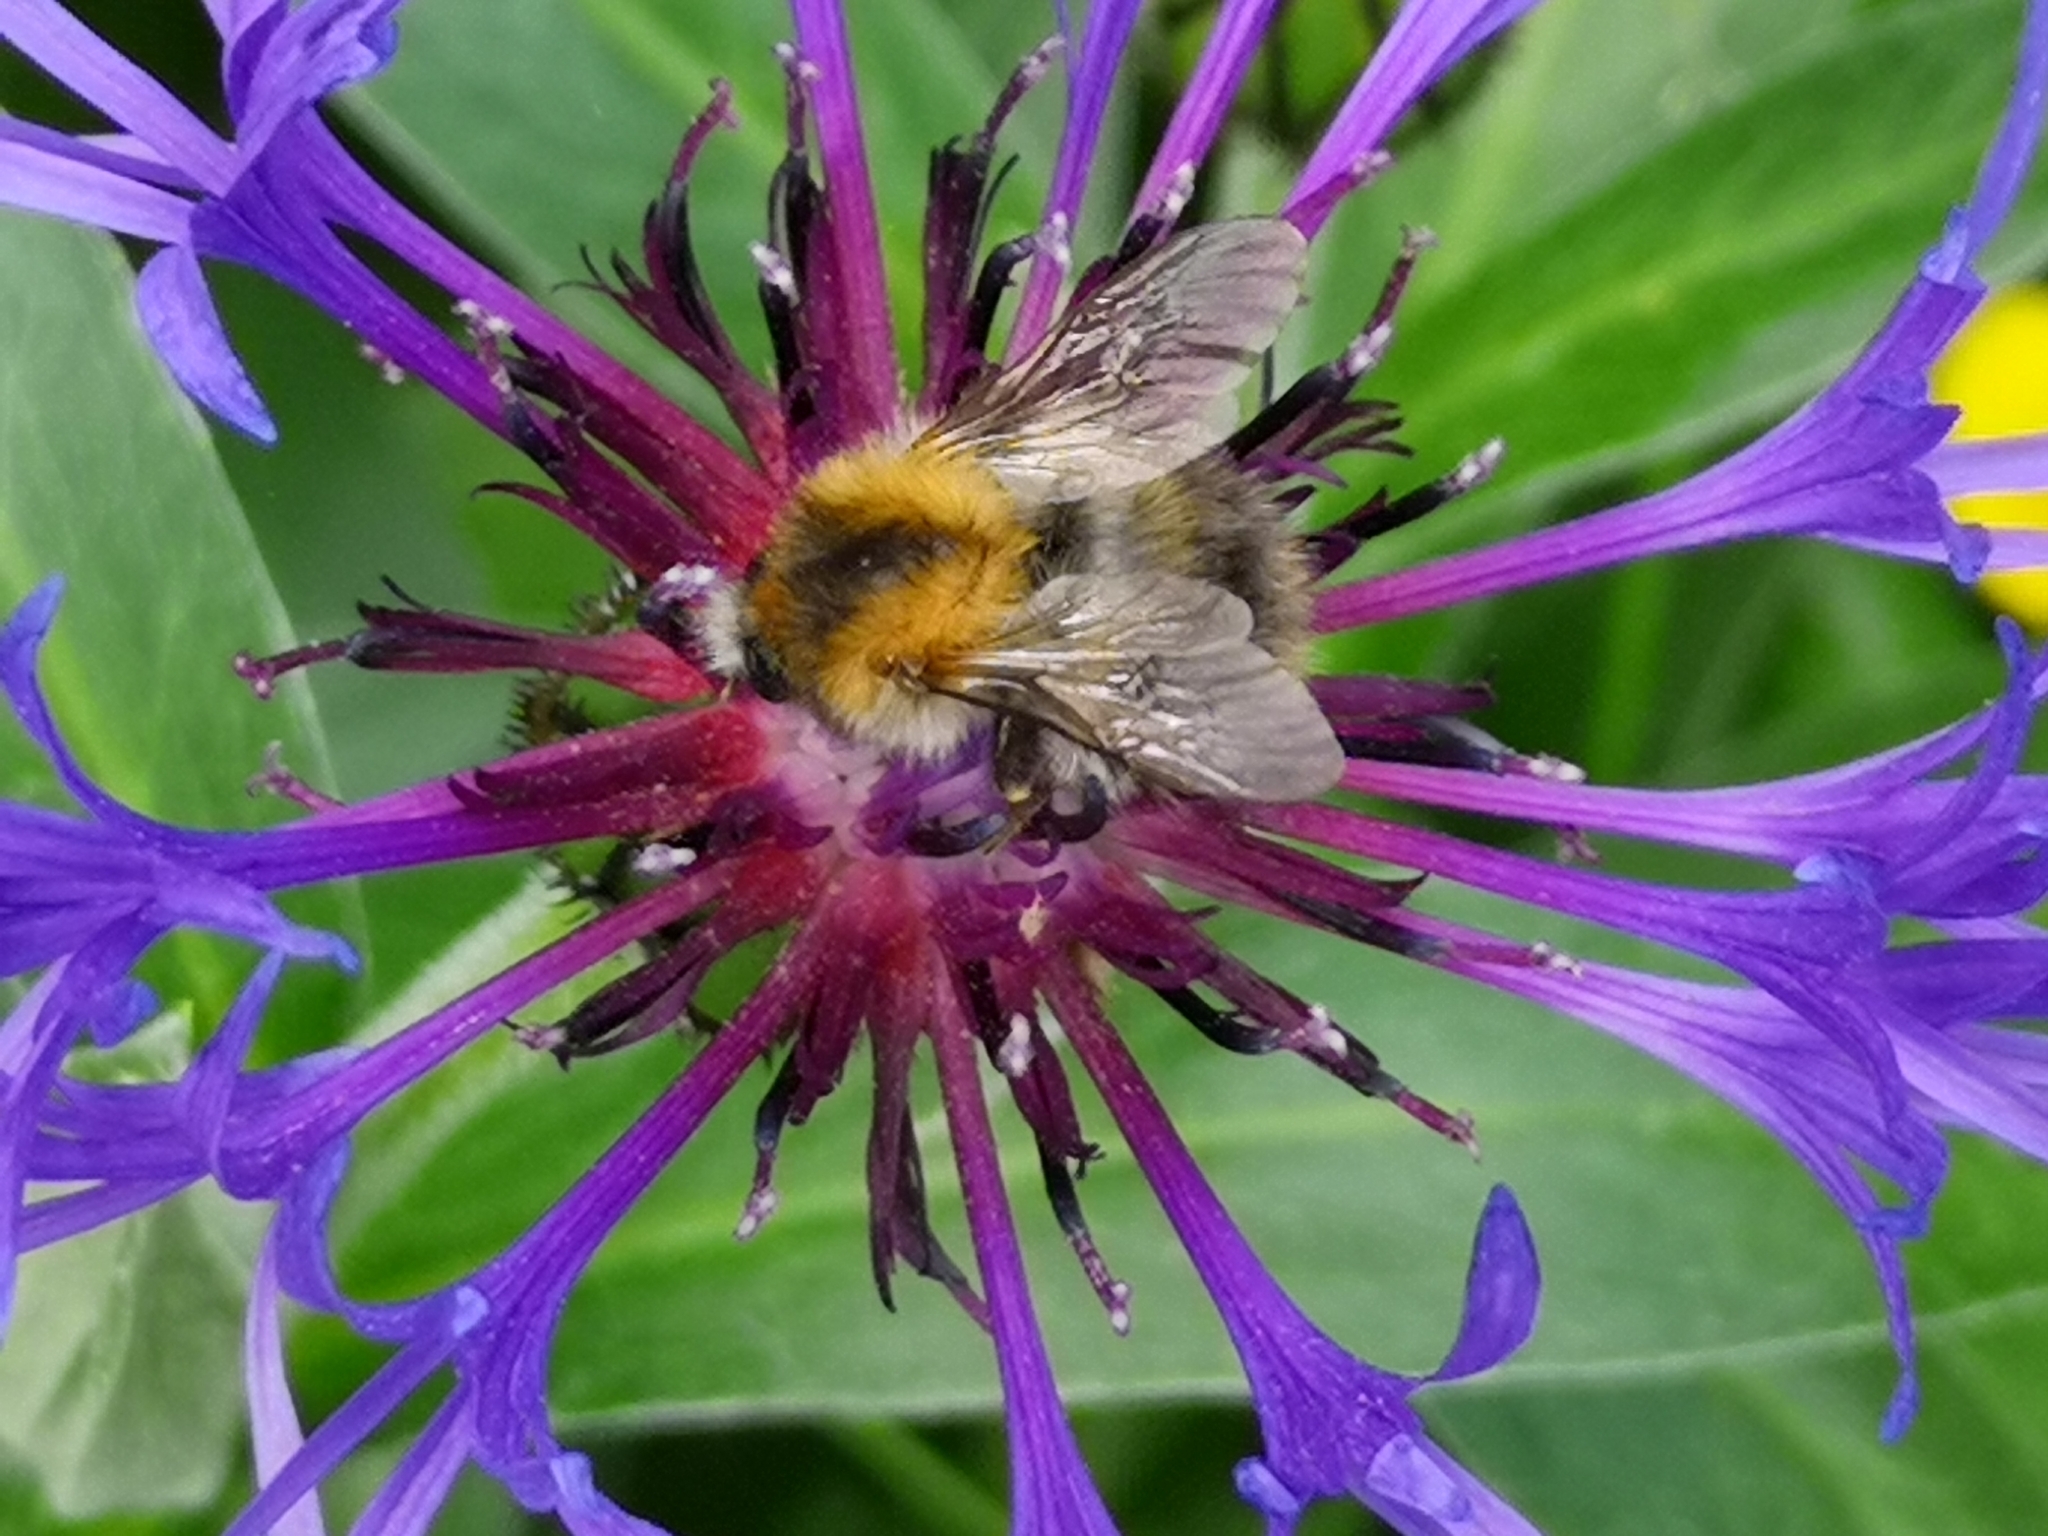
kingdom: Animalia
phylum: Arthropoda
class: Insecta
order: Hymenoptera
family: Apidae
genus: Bombus
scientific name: Bombus pascuorum
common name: Common carder bee
